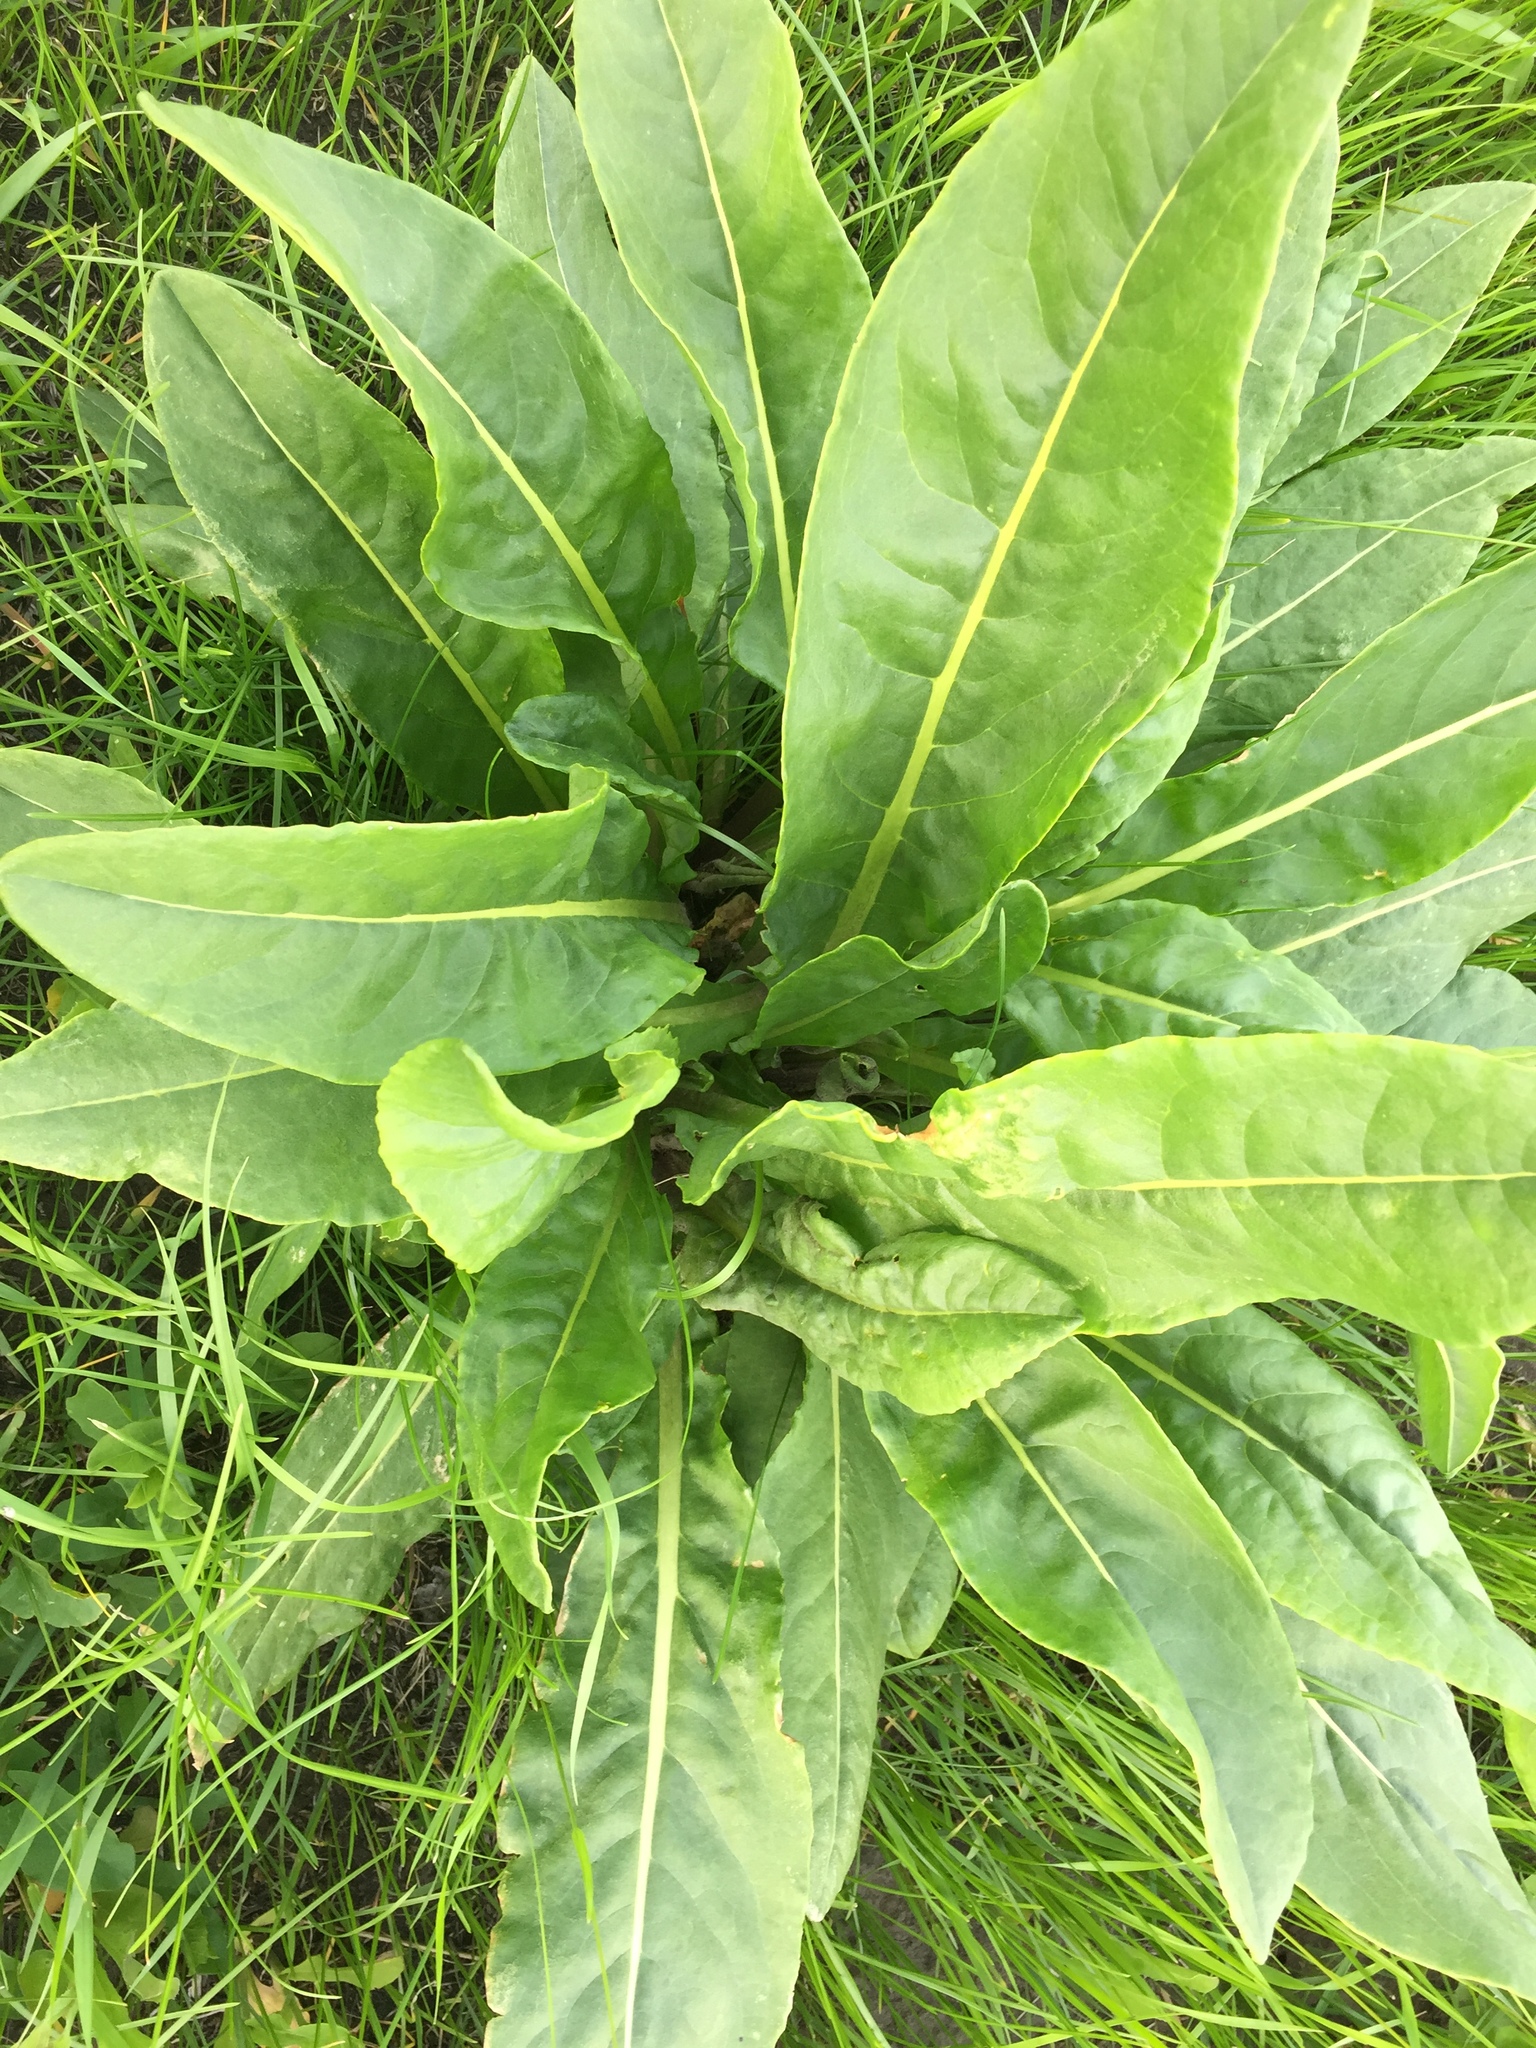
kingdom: Plantae
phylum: Tracheophyta
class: Magnoliopsida
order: Asterales
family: Asteraceae
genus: Senecio
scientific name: Senecio doria
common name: Golden ragwort
